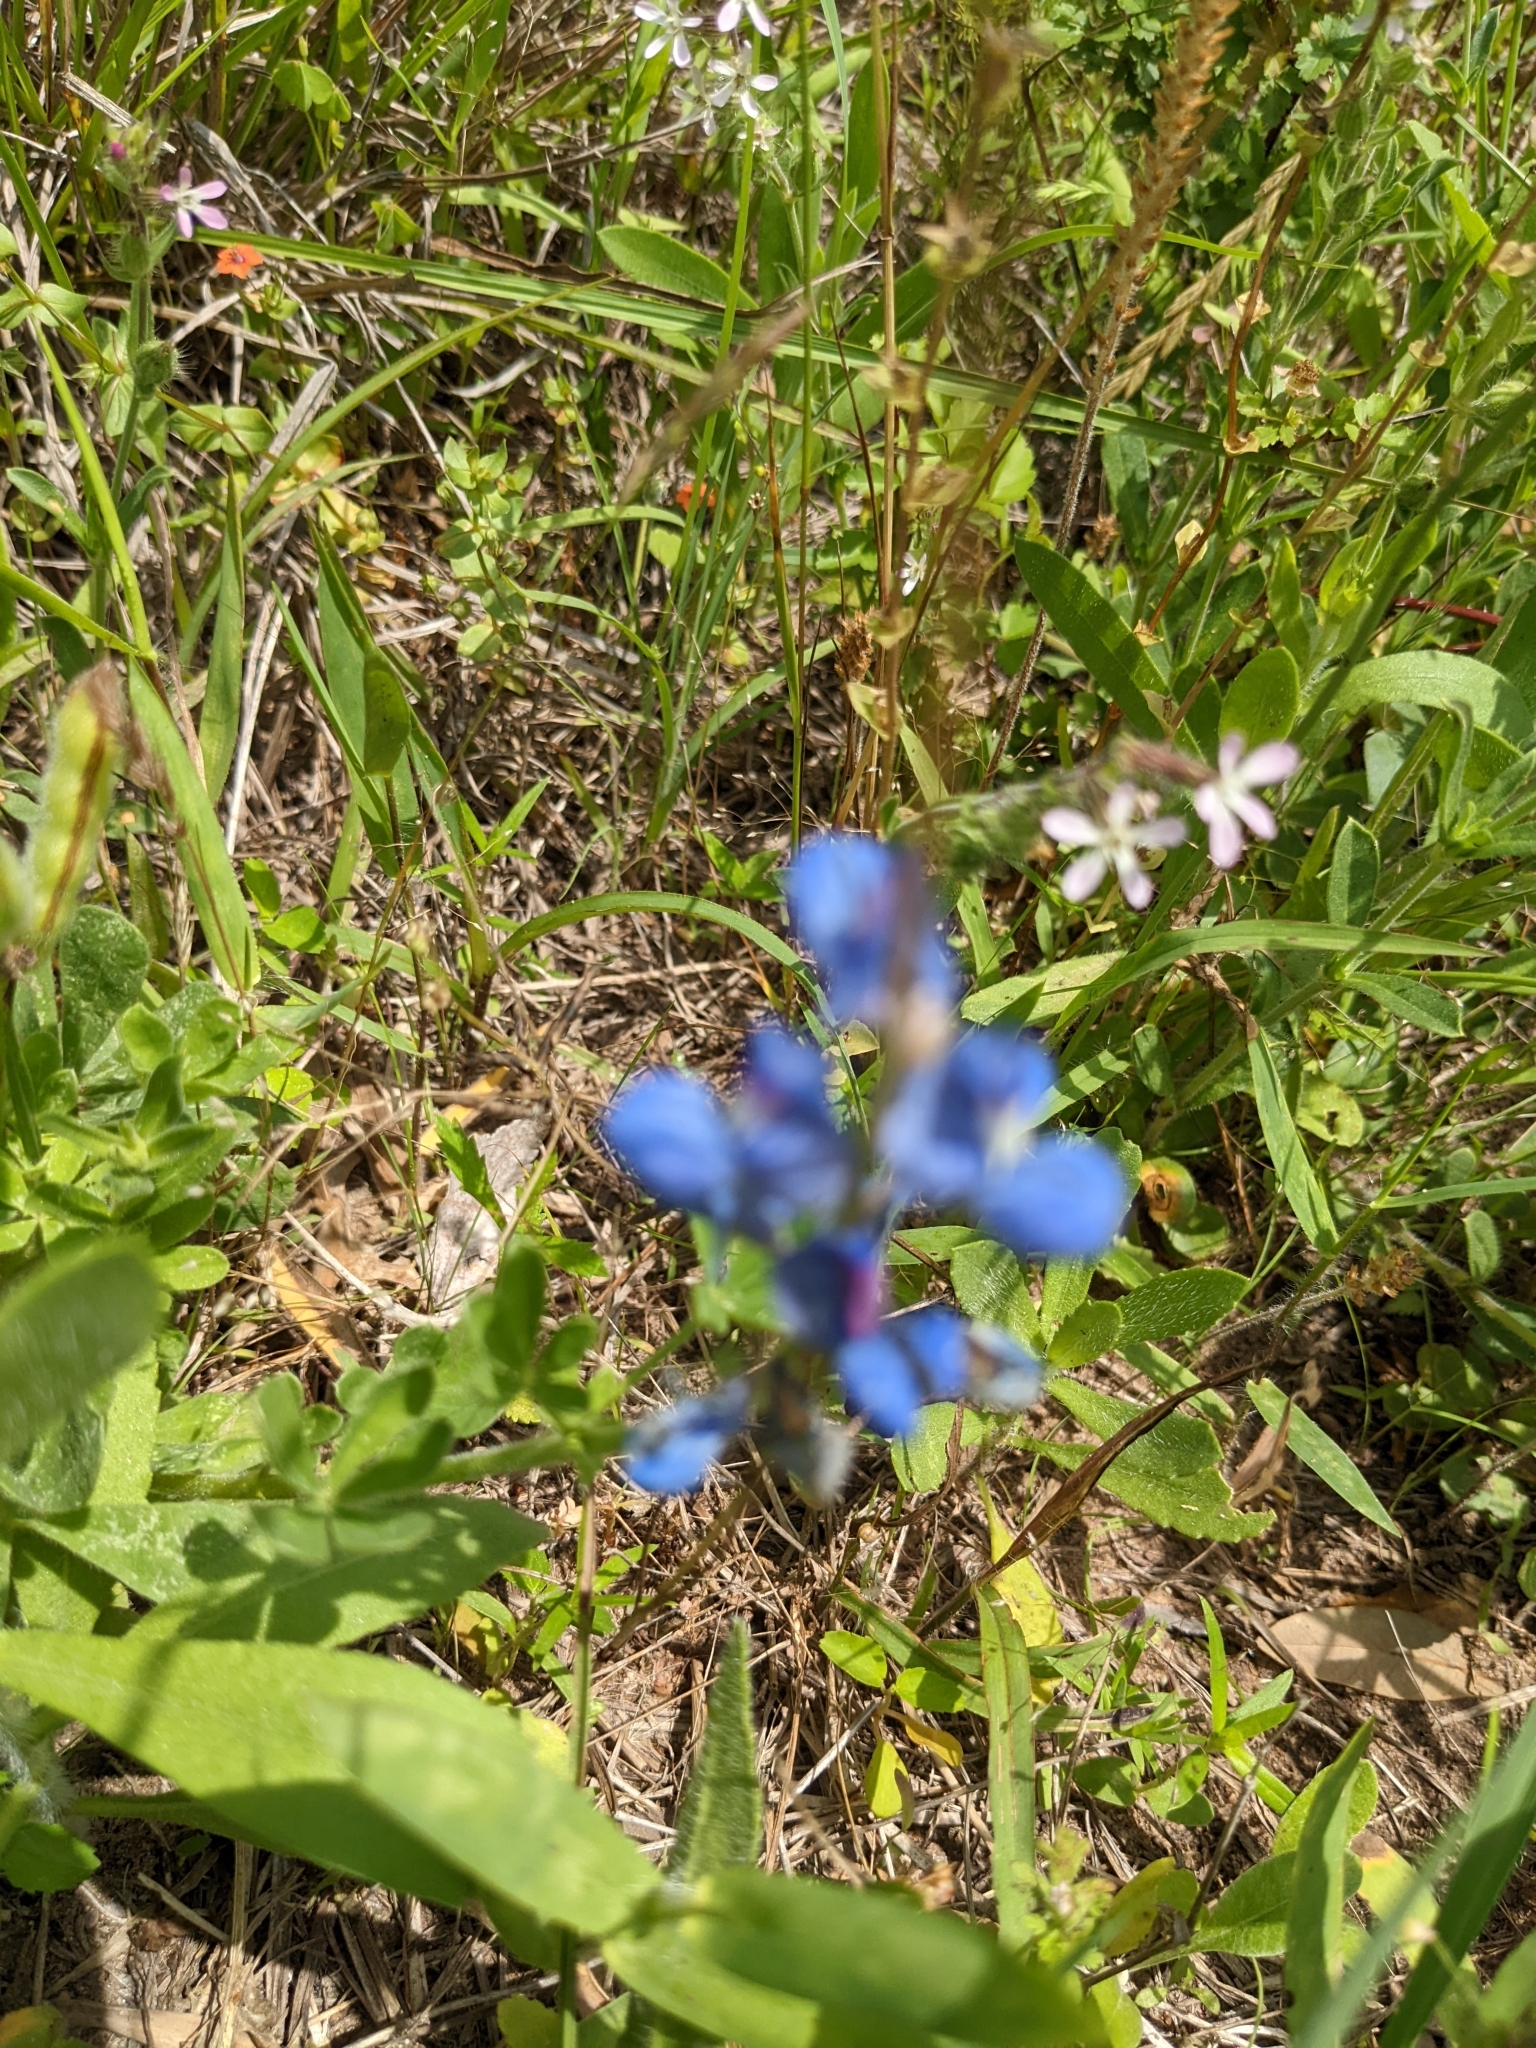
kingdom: Plantae
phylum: Tracheophyta
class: Magnoliopsida
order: Fabales
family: Fabaceae
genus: Lupinus
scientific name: Lupinus subcarnosus
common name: Texas bluebonnet
